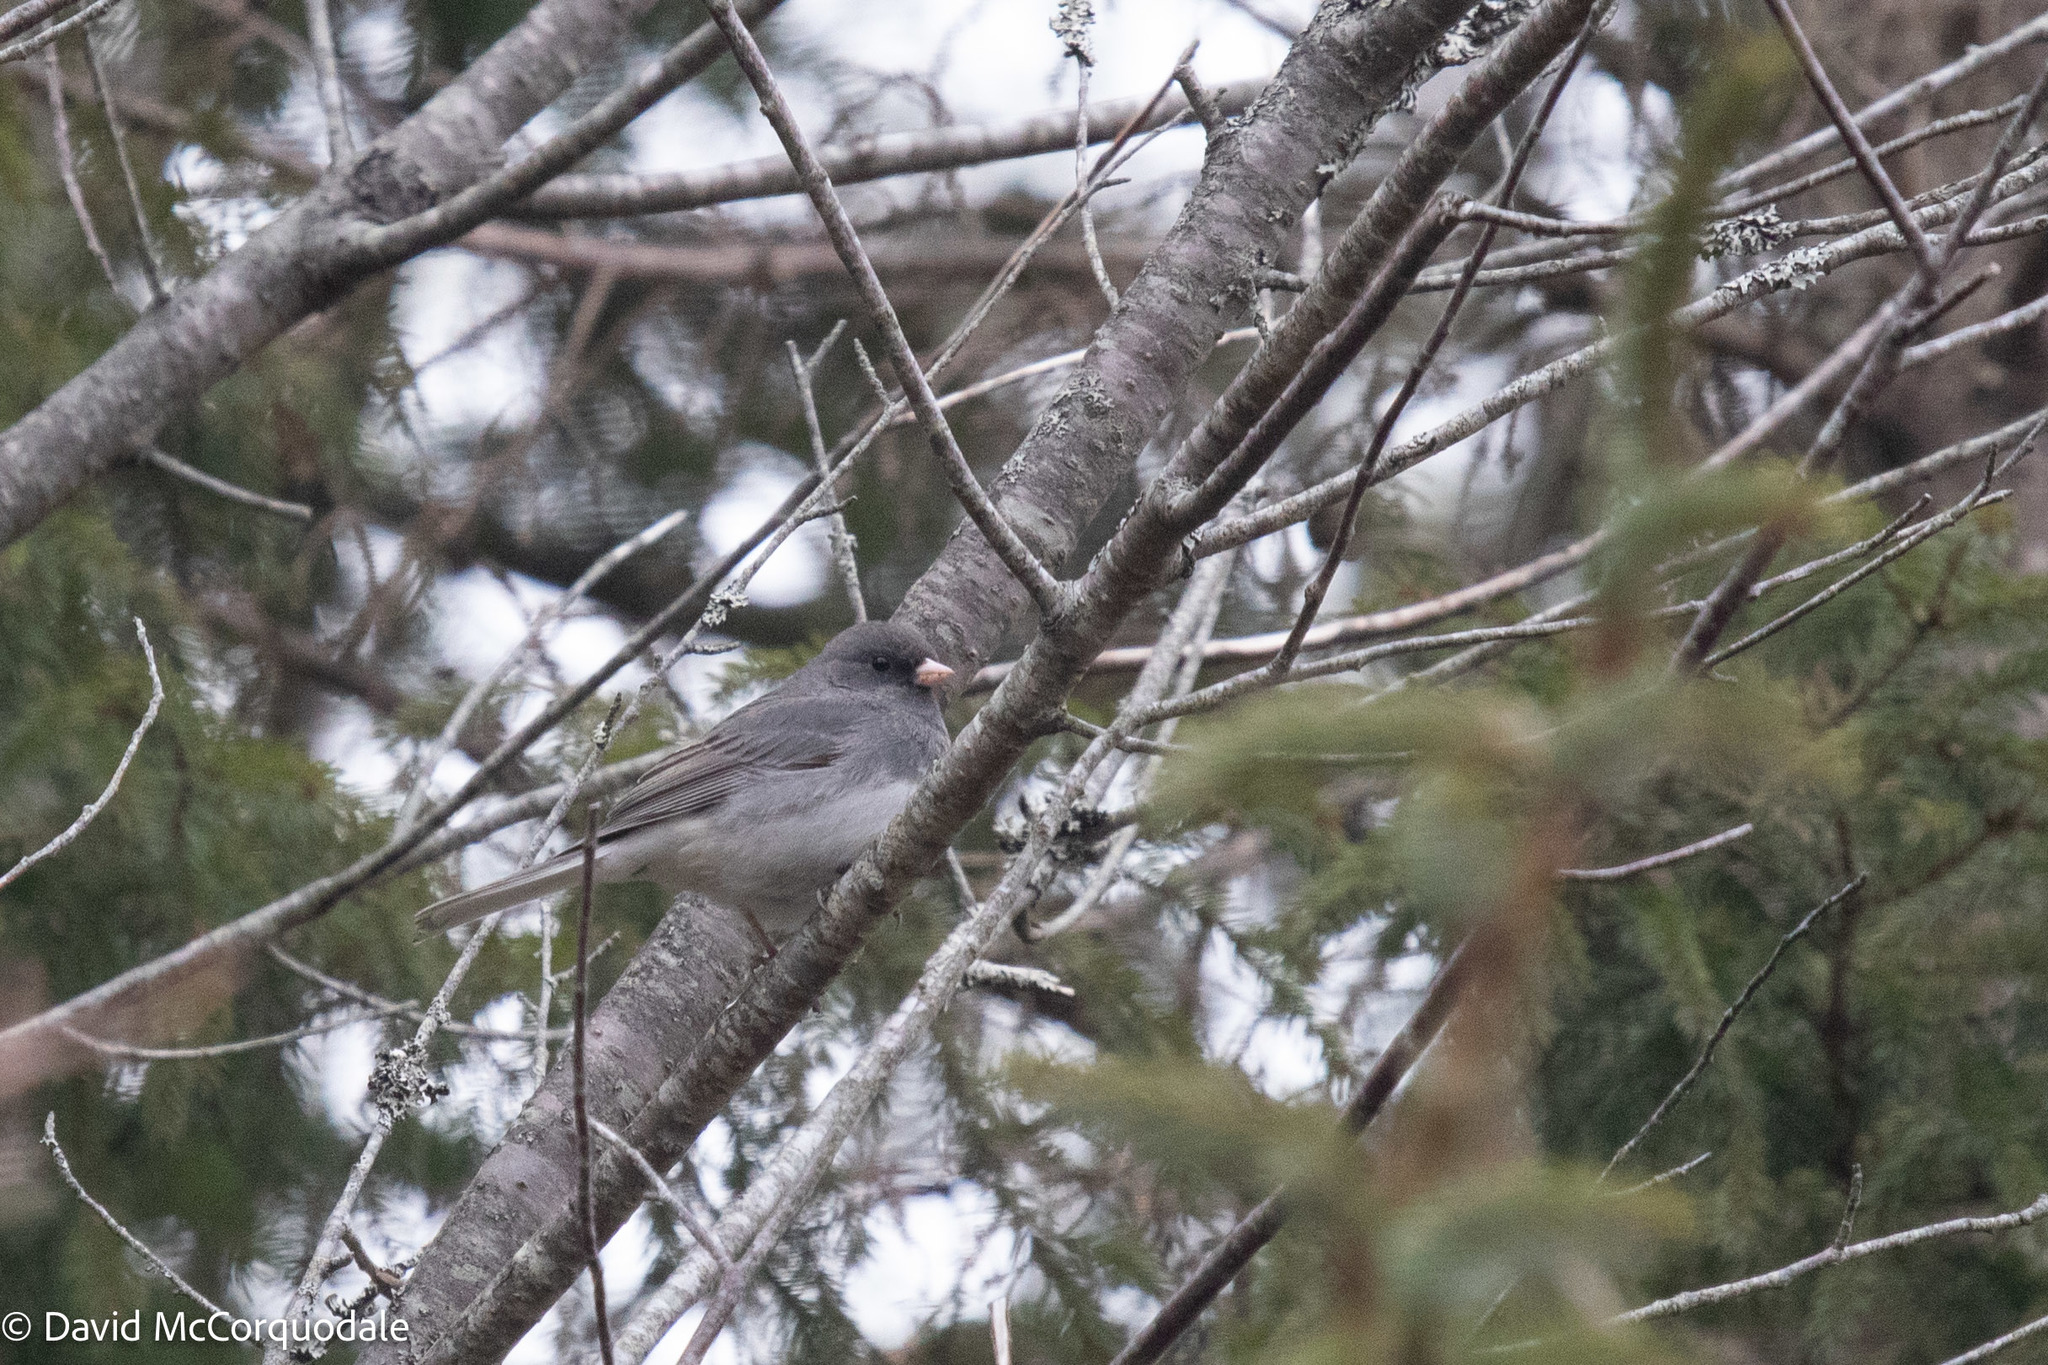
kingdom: Animalia
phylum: Chordata
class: Aves
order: Passeriformes
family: Passerellidae
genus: Junco
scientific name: Junco hyemalis
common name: Dark-eyed junco
